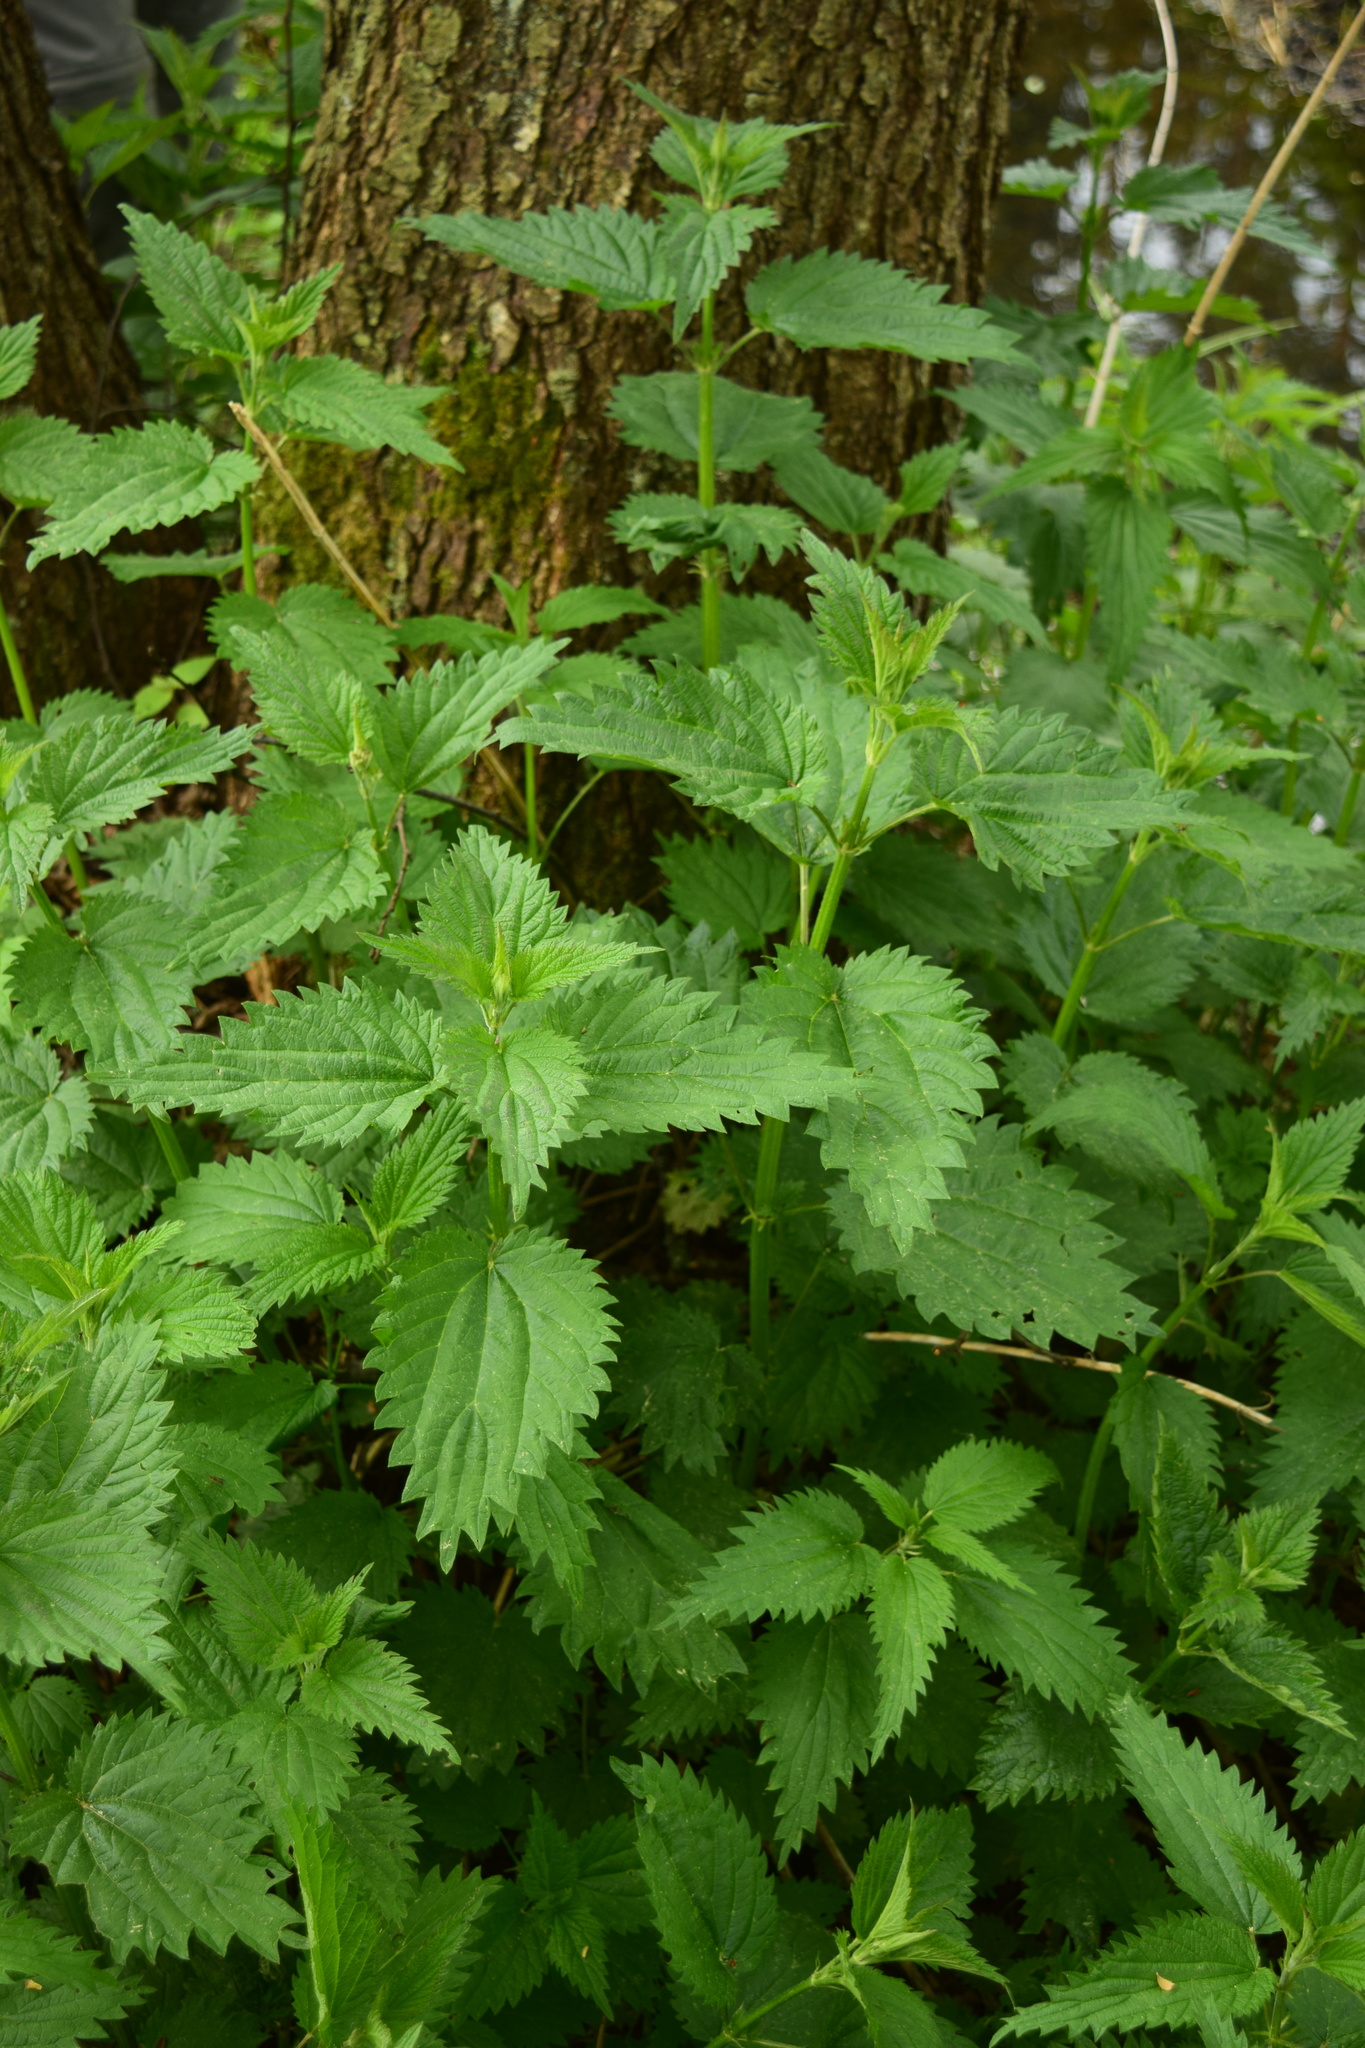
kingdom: Plantae
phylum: Tracheophyta
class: Magnoliopsida
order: Rosales
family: Urticaceae
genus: Urtica
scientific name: Urtica dioica
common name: Common nettle
